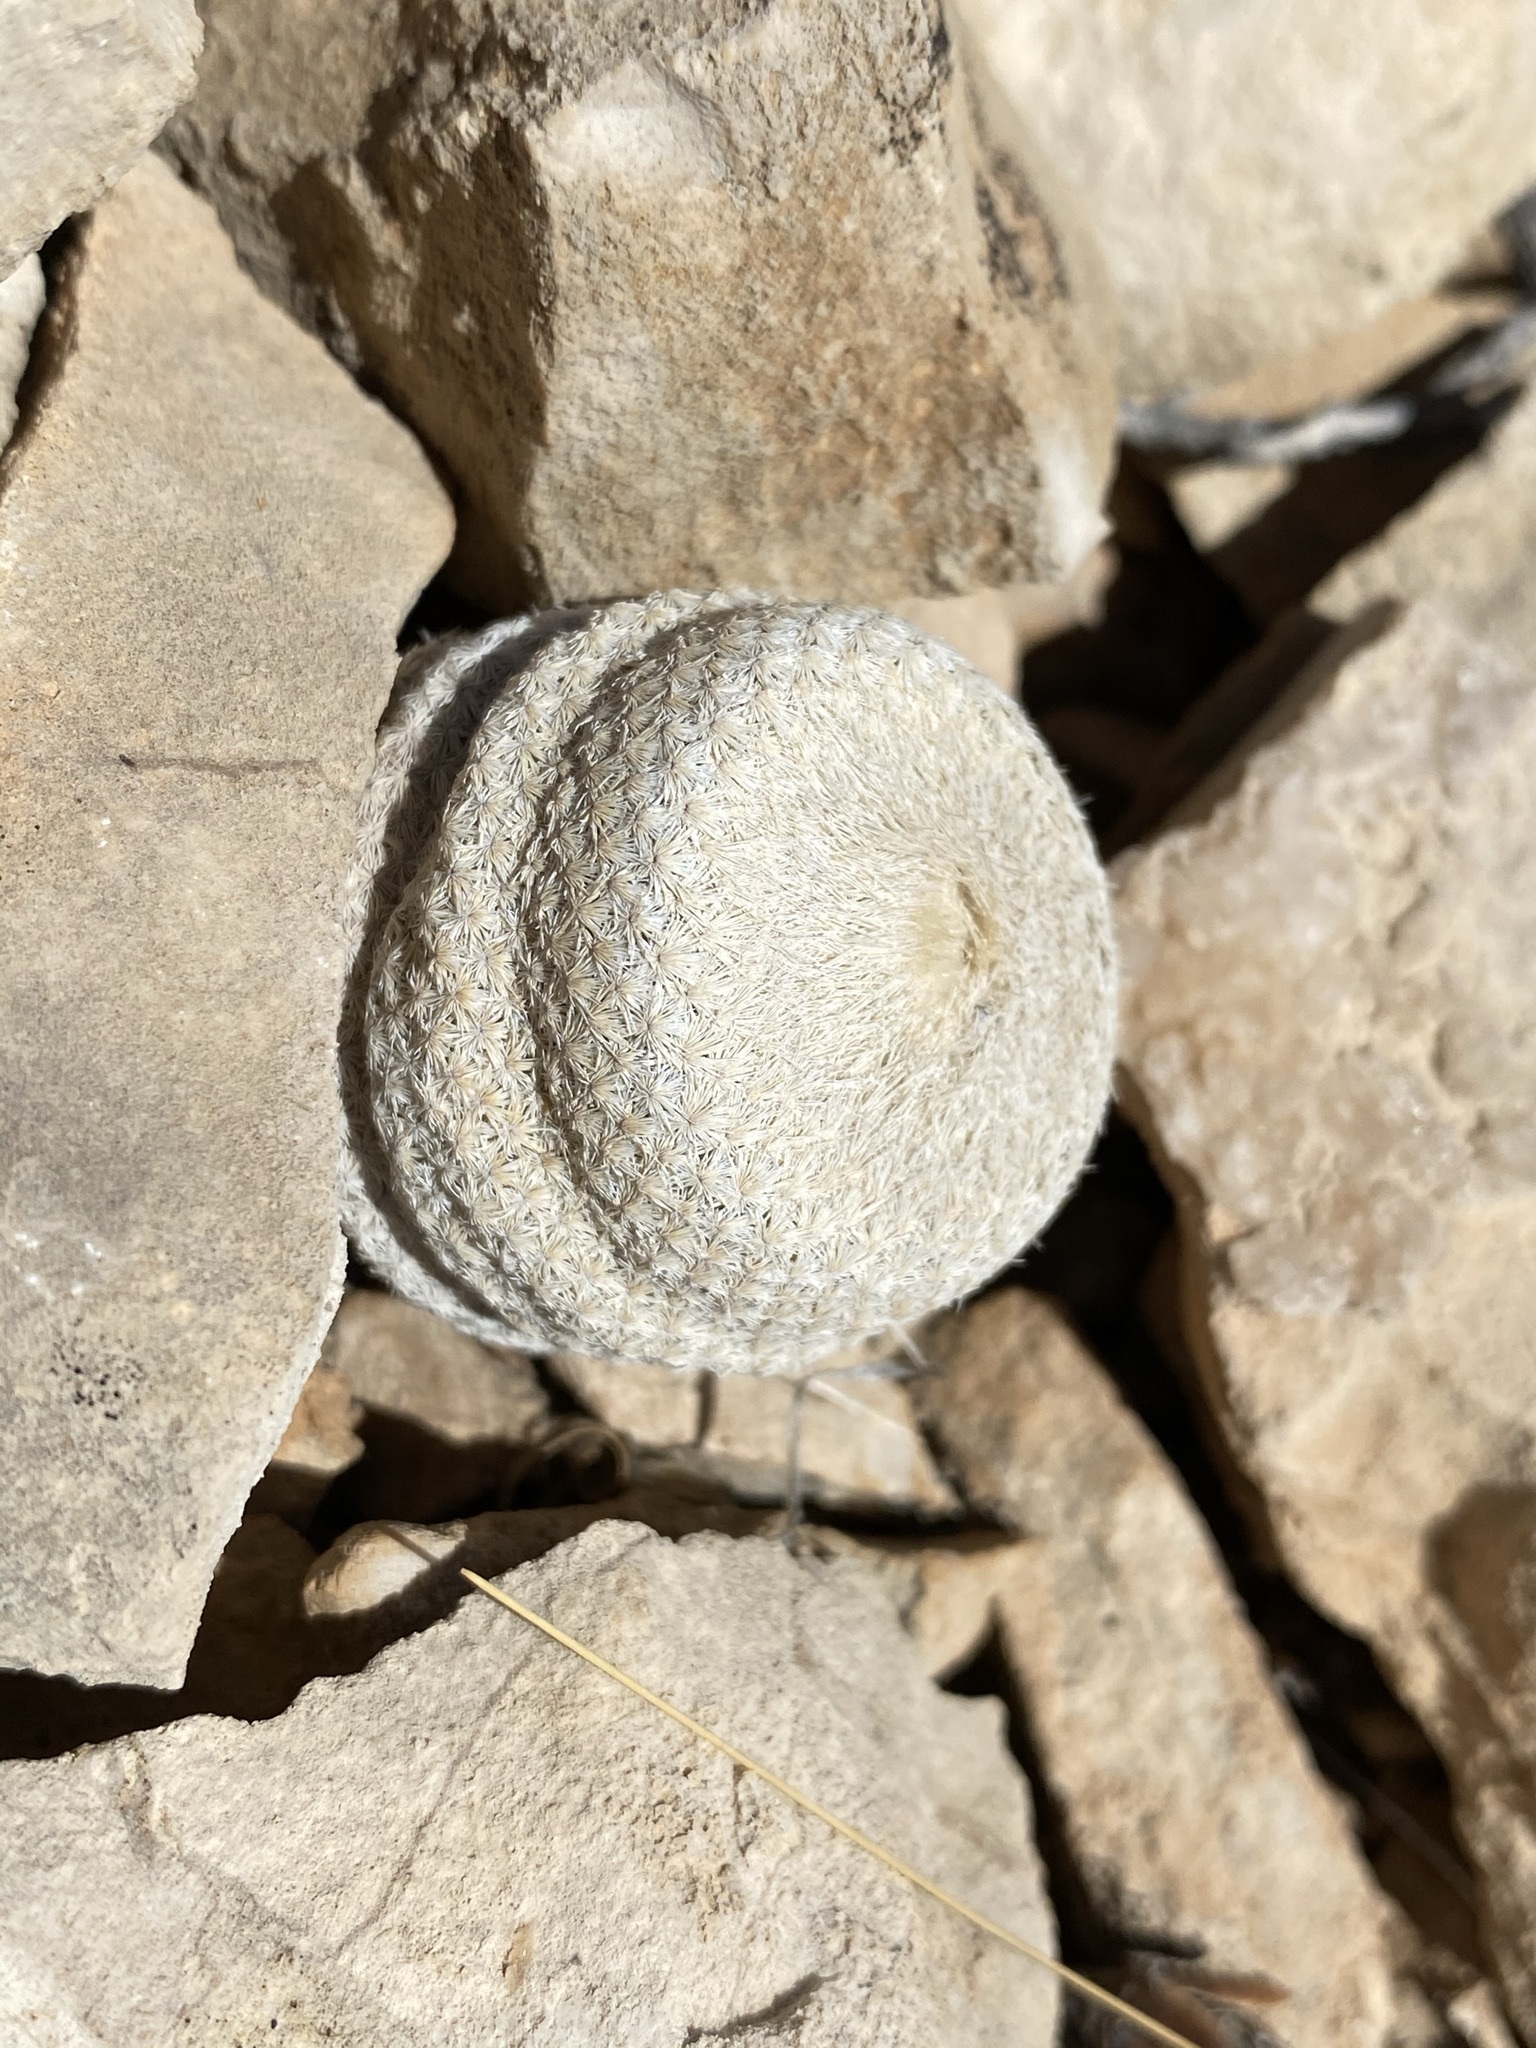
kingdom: Plantae
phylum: Tracheophyta
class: Magnoliopsida
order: Caryophyllales
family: Cactaceae
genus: Epithelantha
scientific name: Epithelantha bokei
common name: Boke's button cactus
